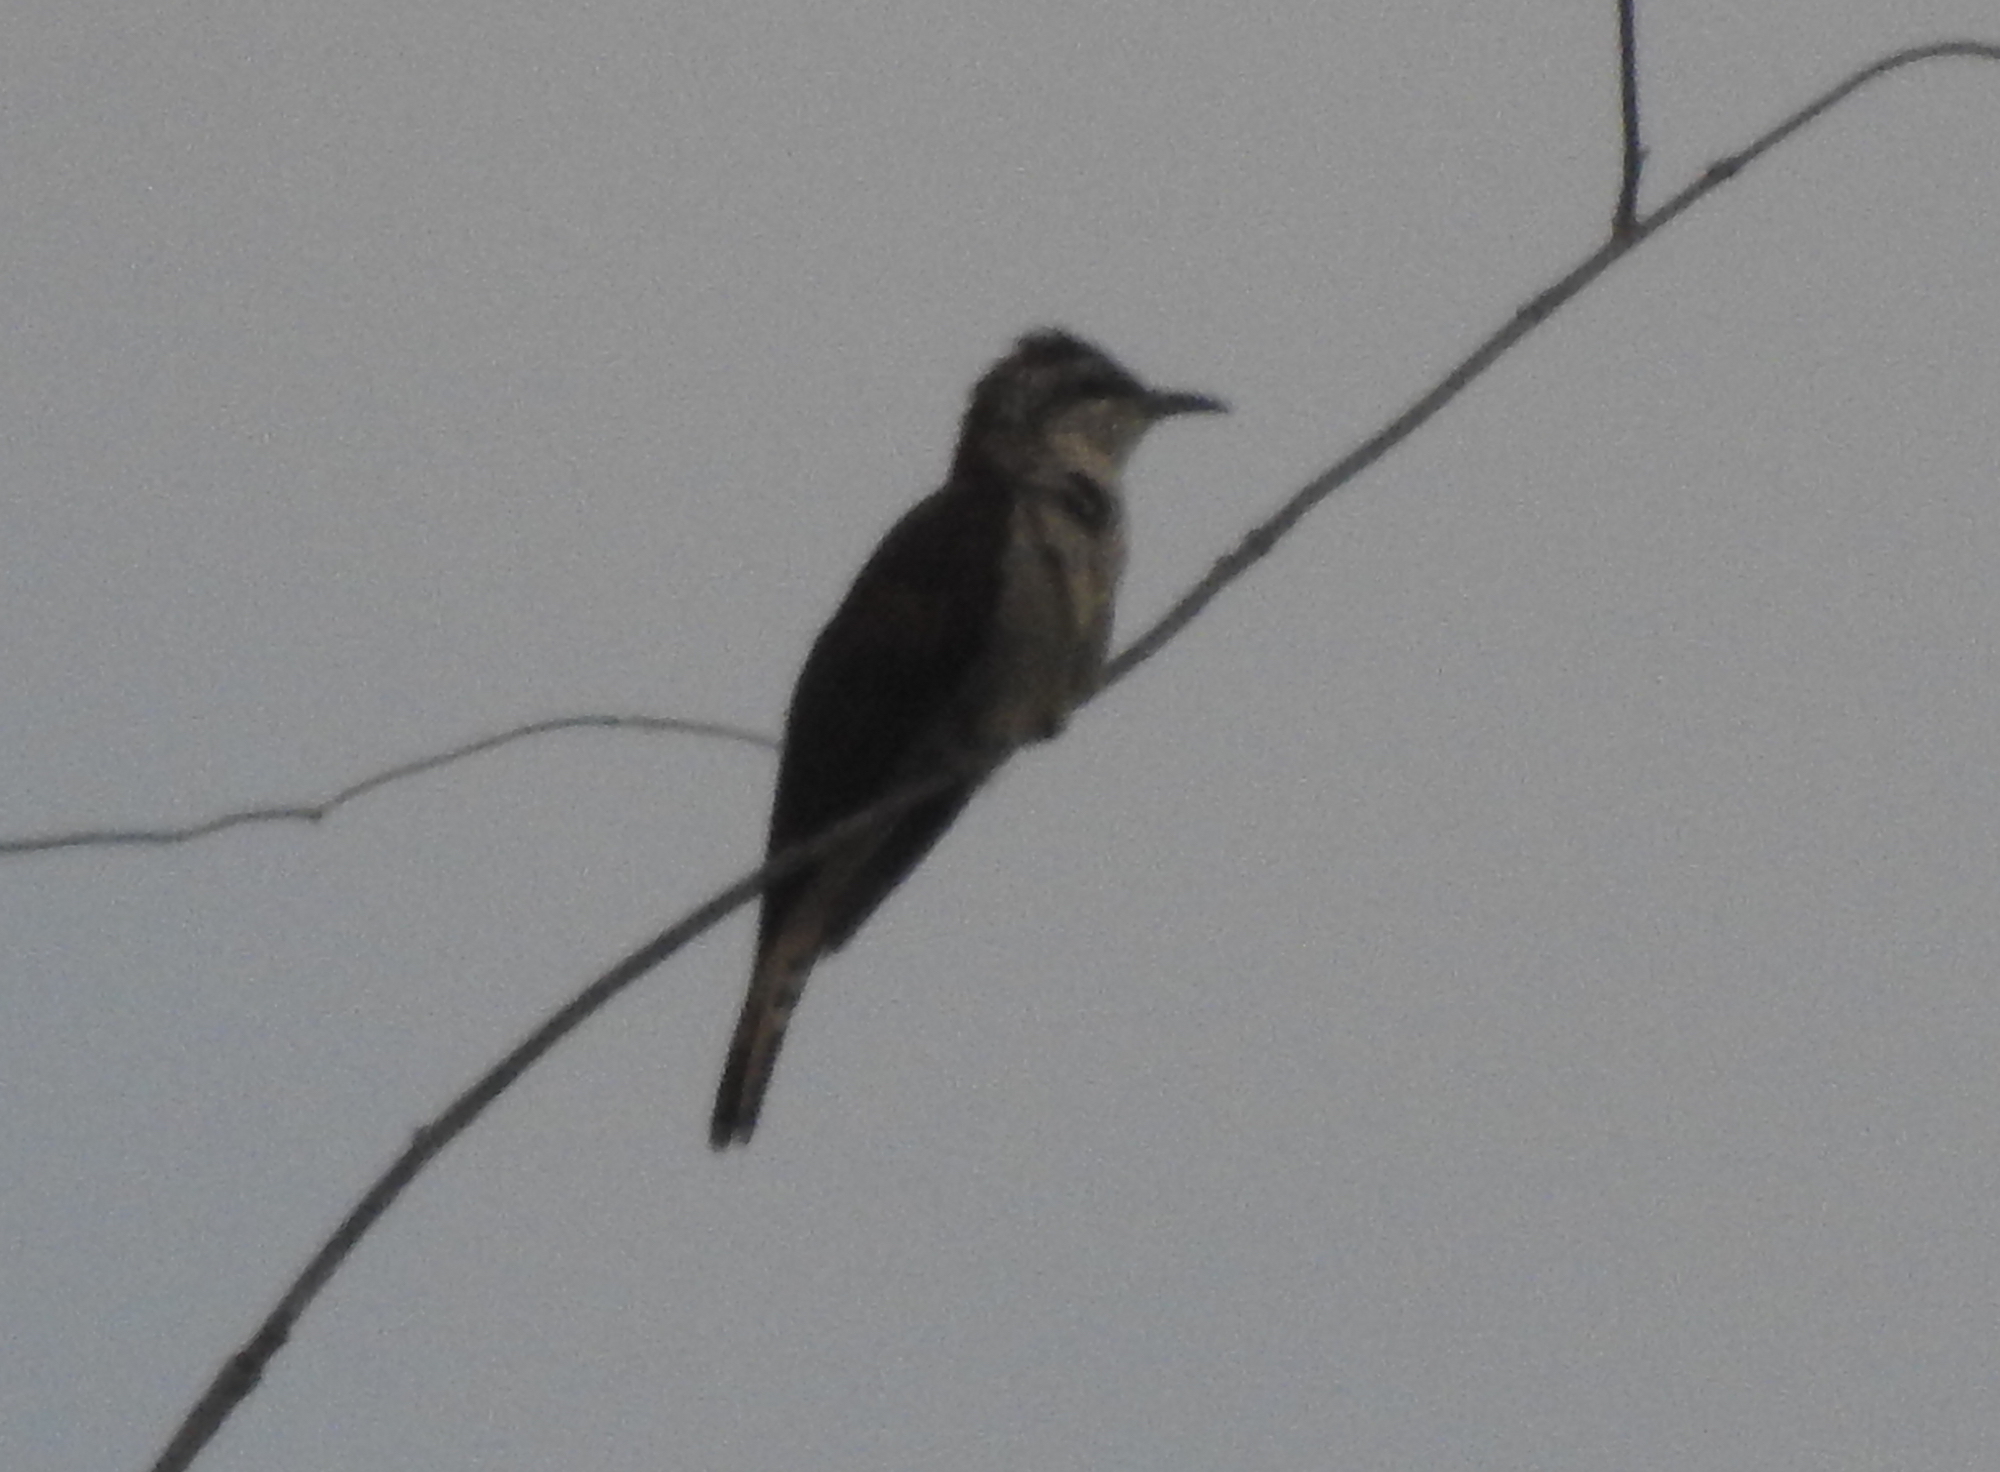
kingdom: Animalia
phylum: Chordata
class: Aves
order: Cuculiformes
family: Cuculidae
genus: Cacomantis
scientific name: Cacomantis sonneratii
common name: Banded bay cuckoo
